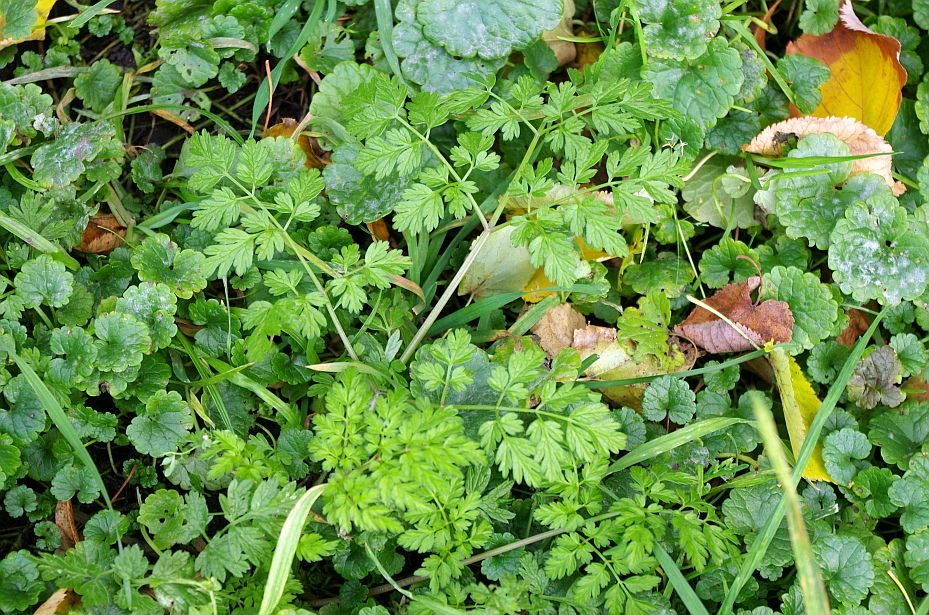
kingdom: Plantae
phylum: Tracheophyta
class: Magnoliopsida
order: Apiales
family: Apiaceae
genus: Anthriscus
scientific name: Anthriscus sylvestris
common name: Cow parsley
